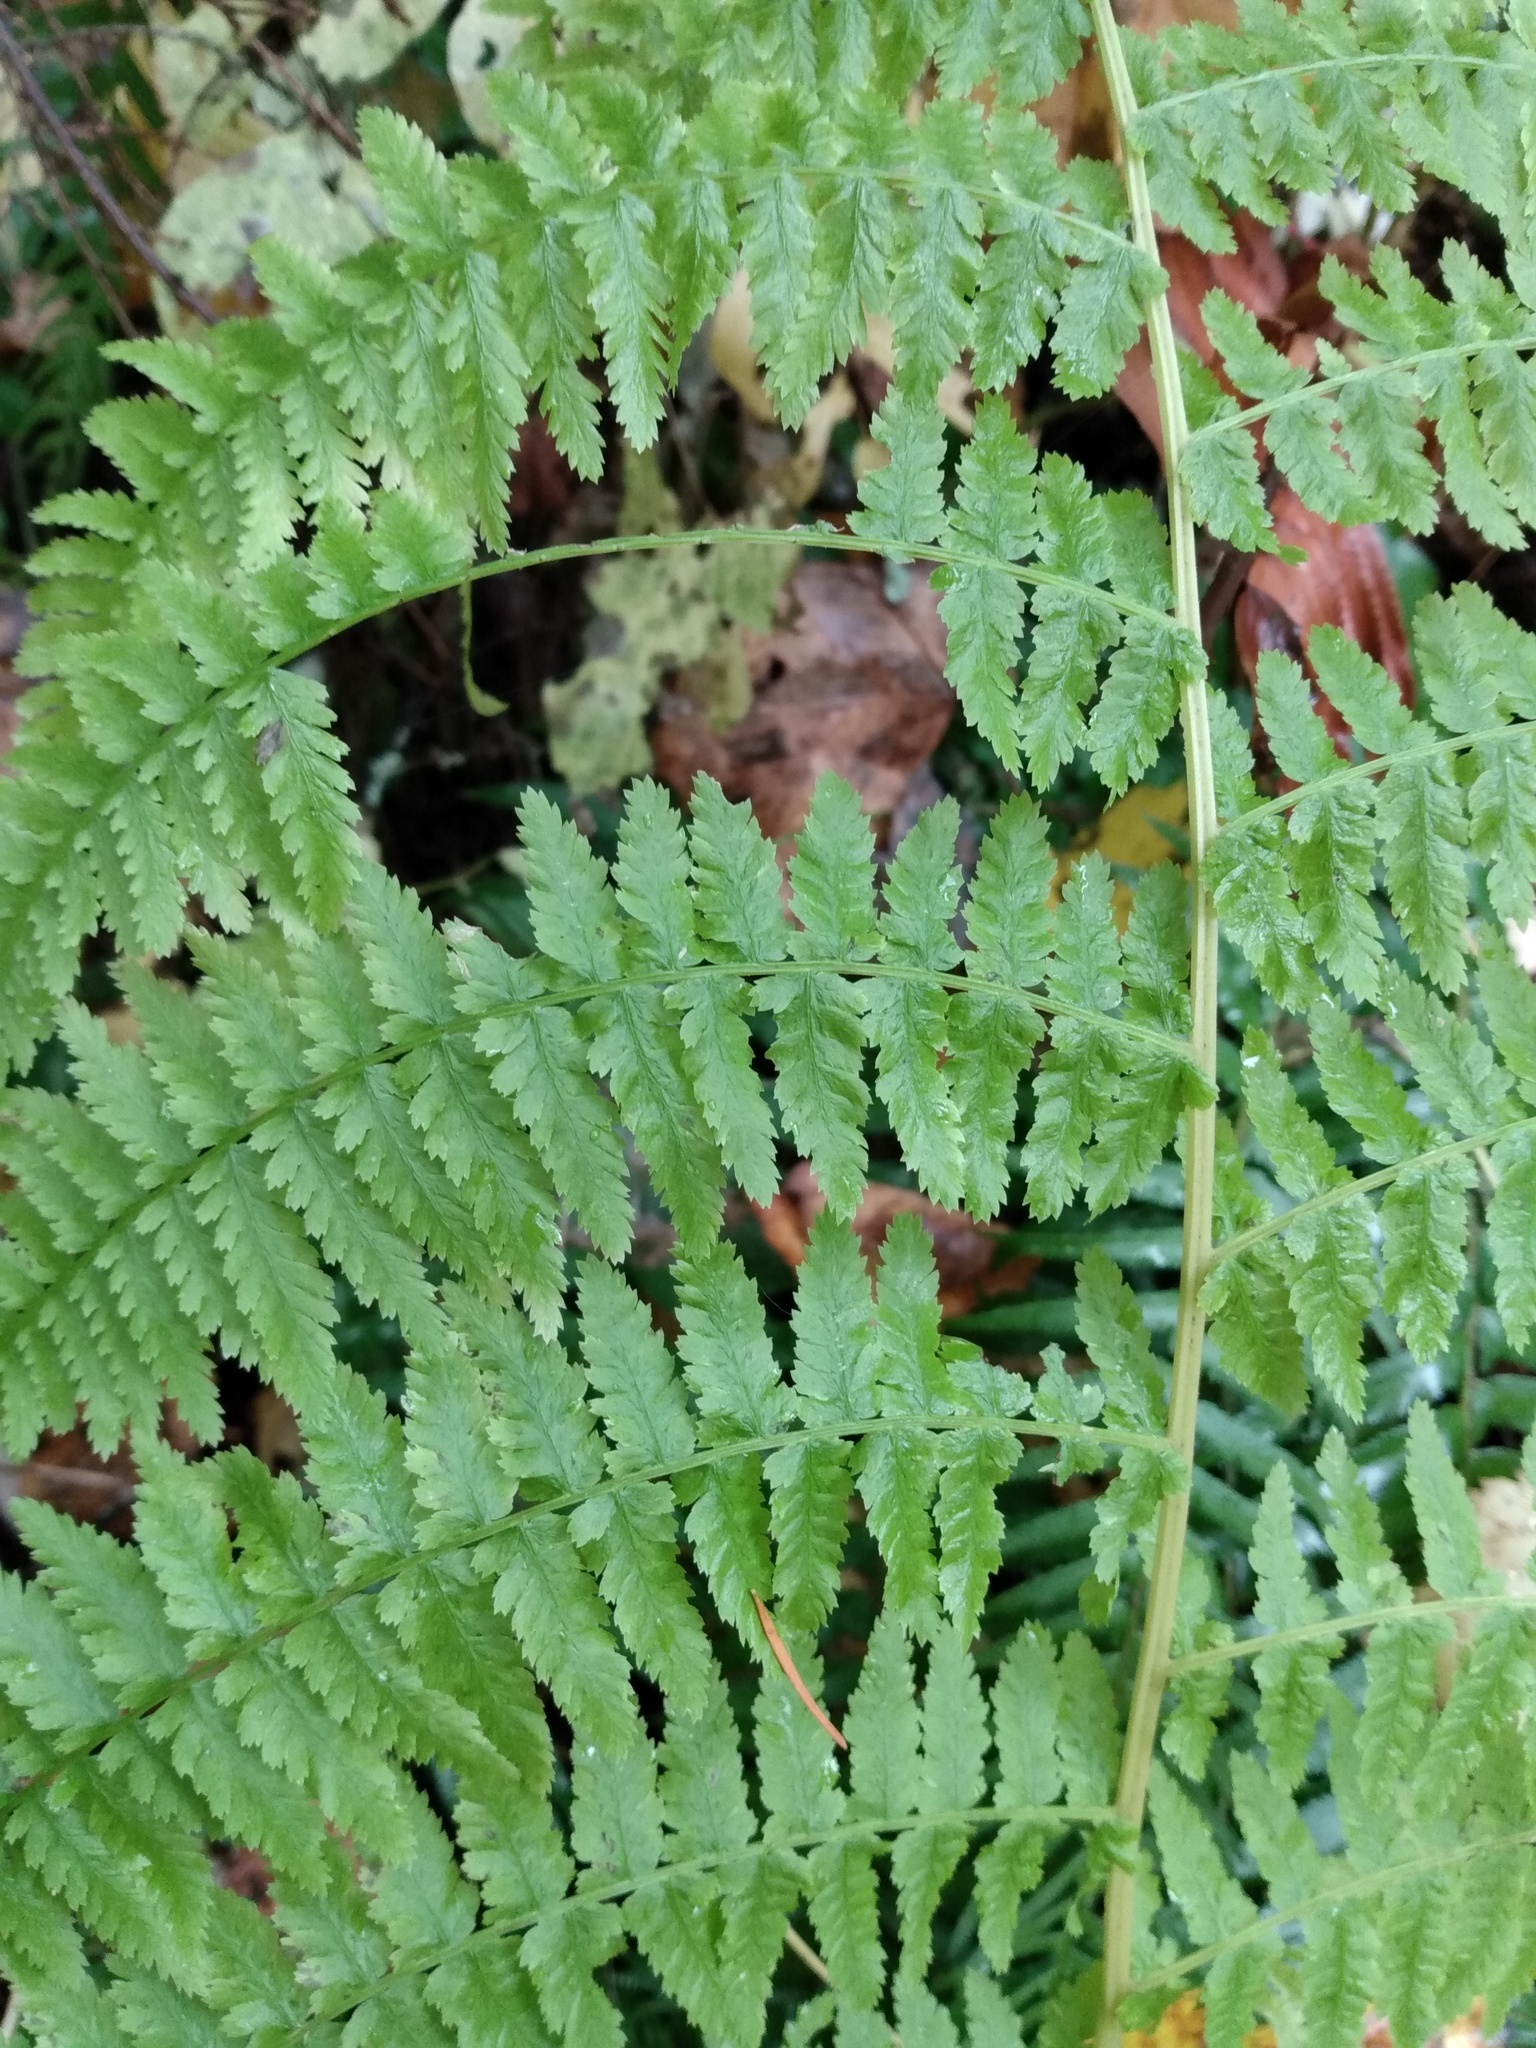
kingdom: Plantae
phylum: Tracheophyta
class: Polypodiopsida
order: Polypodiales
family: Athyriaceae
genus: Athyrium
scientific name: Athyrium filix-femina
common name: Lady fern
